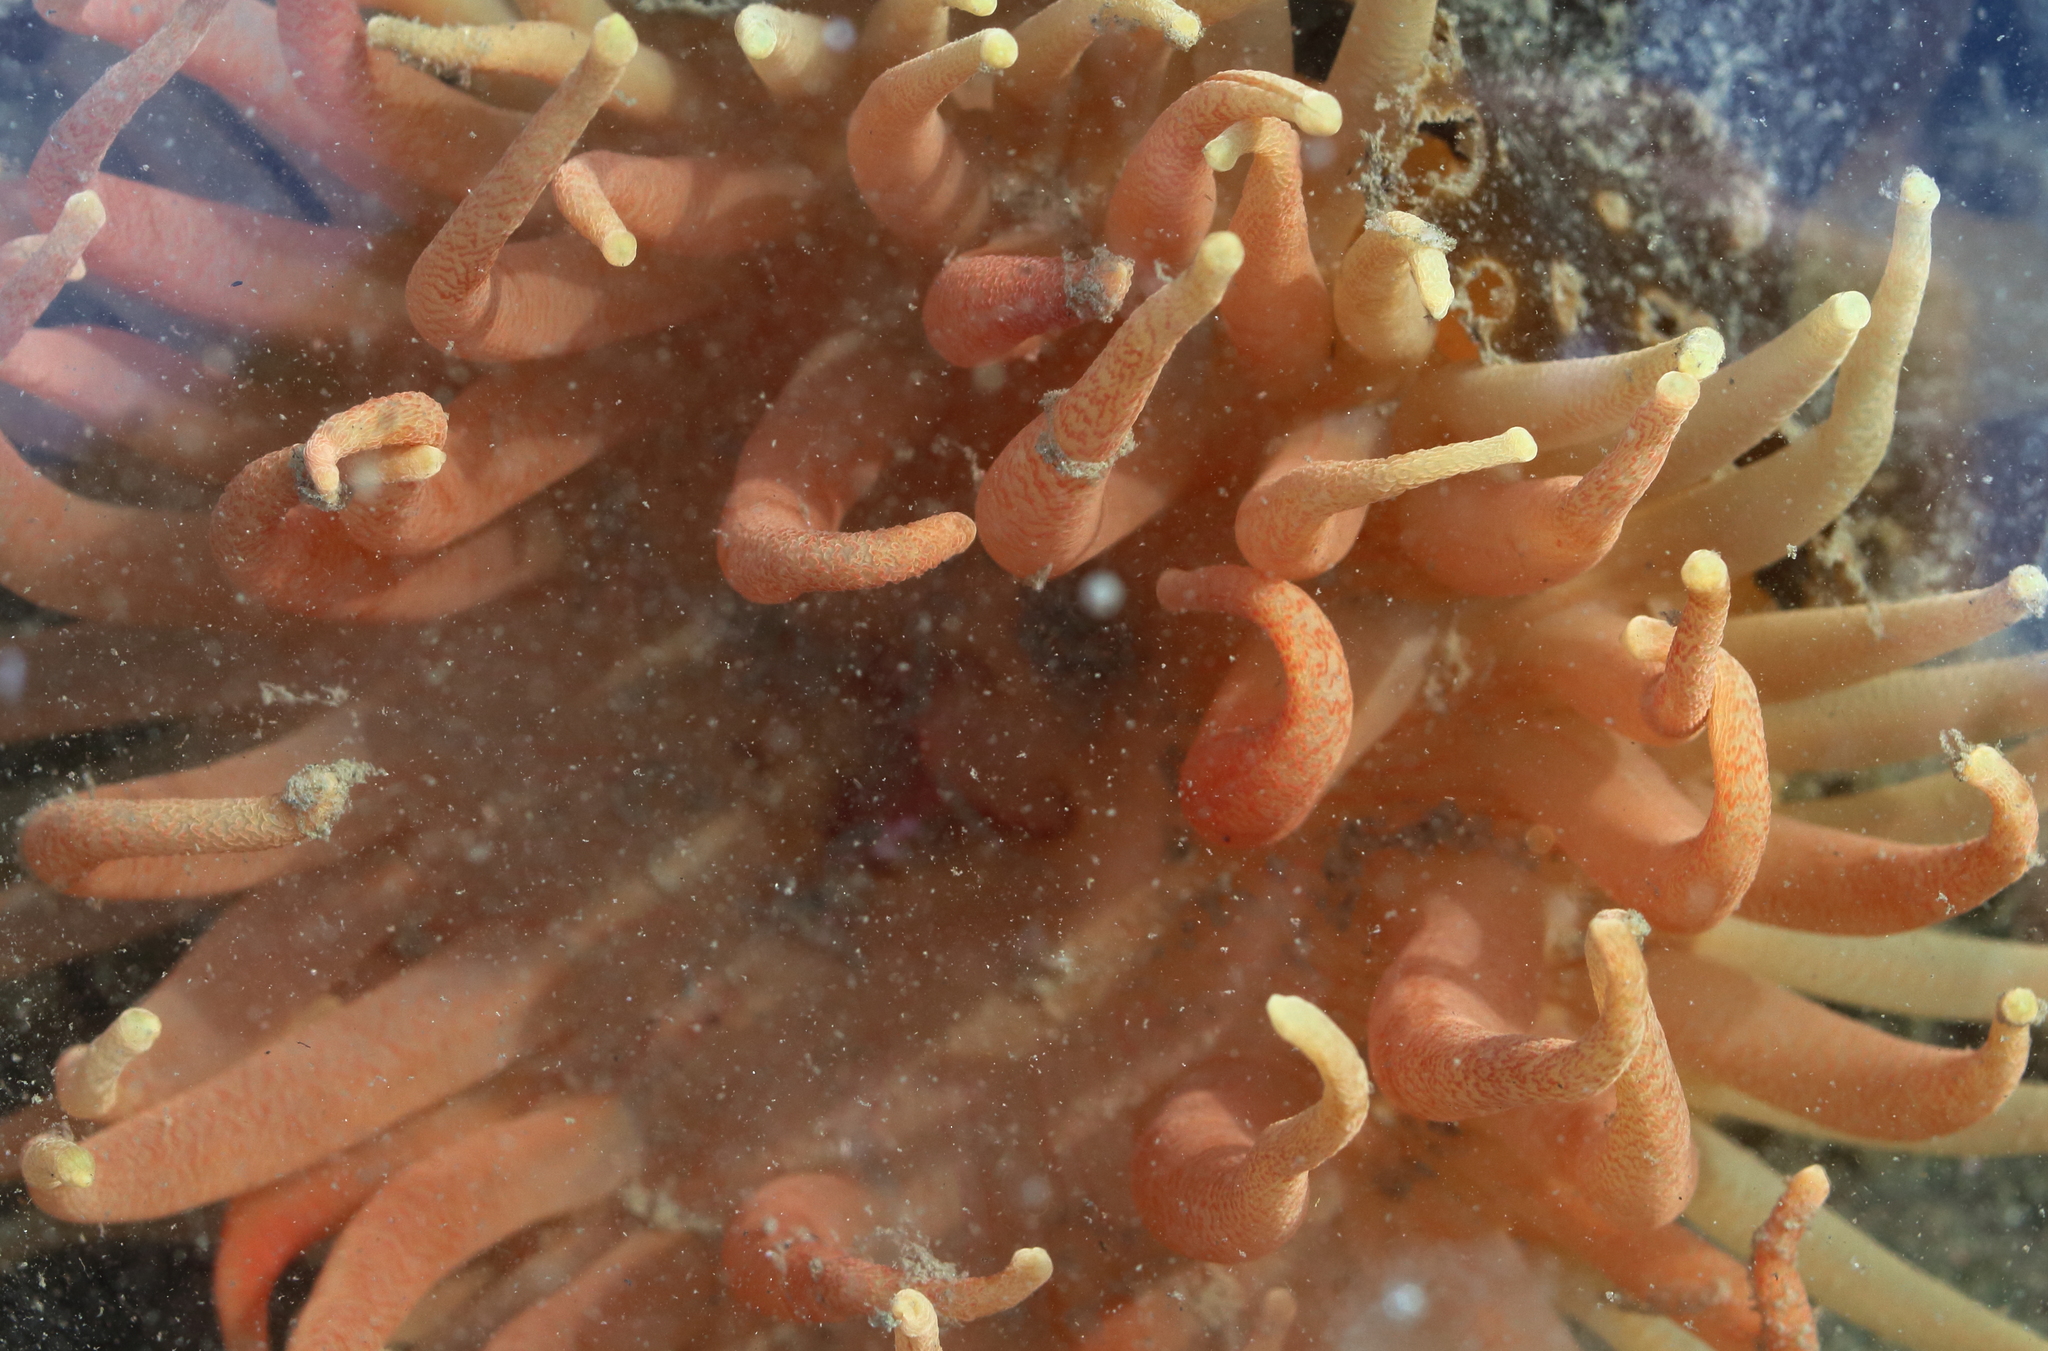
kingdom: Animalia
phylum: Cnidaria
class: Anthozoa
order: Actiniaria
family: Actiniidae
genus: Cribrinopsis
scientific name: Cribrinopsis fernaldi
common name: Chevron-tentacle anemone
